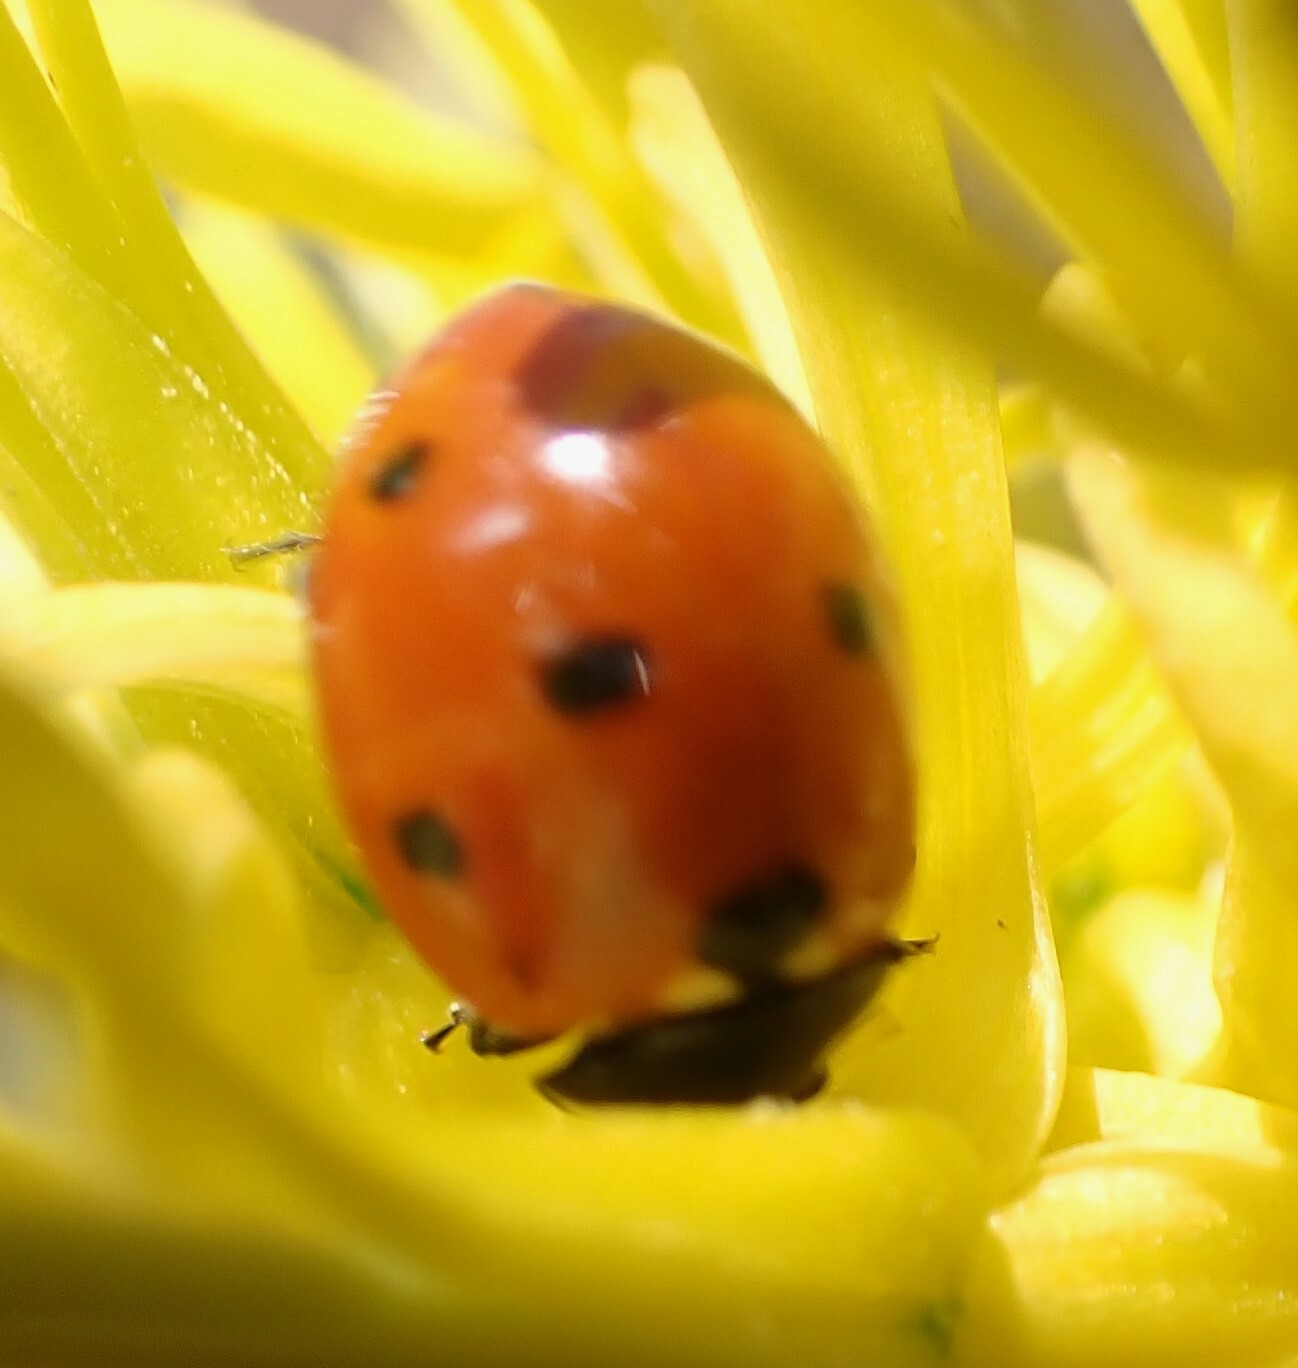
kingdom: Animalia
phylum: Arthropoda
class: Insecta
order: Coleoptera
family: Coccinellidae
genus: Coccinella
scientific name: Coccinella septempunctata
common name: Sevenspotted lady beetle
